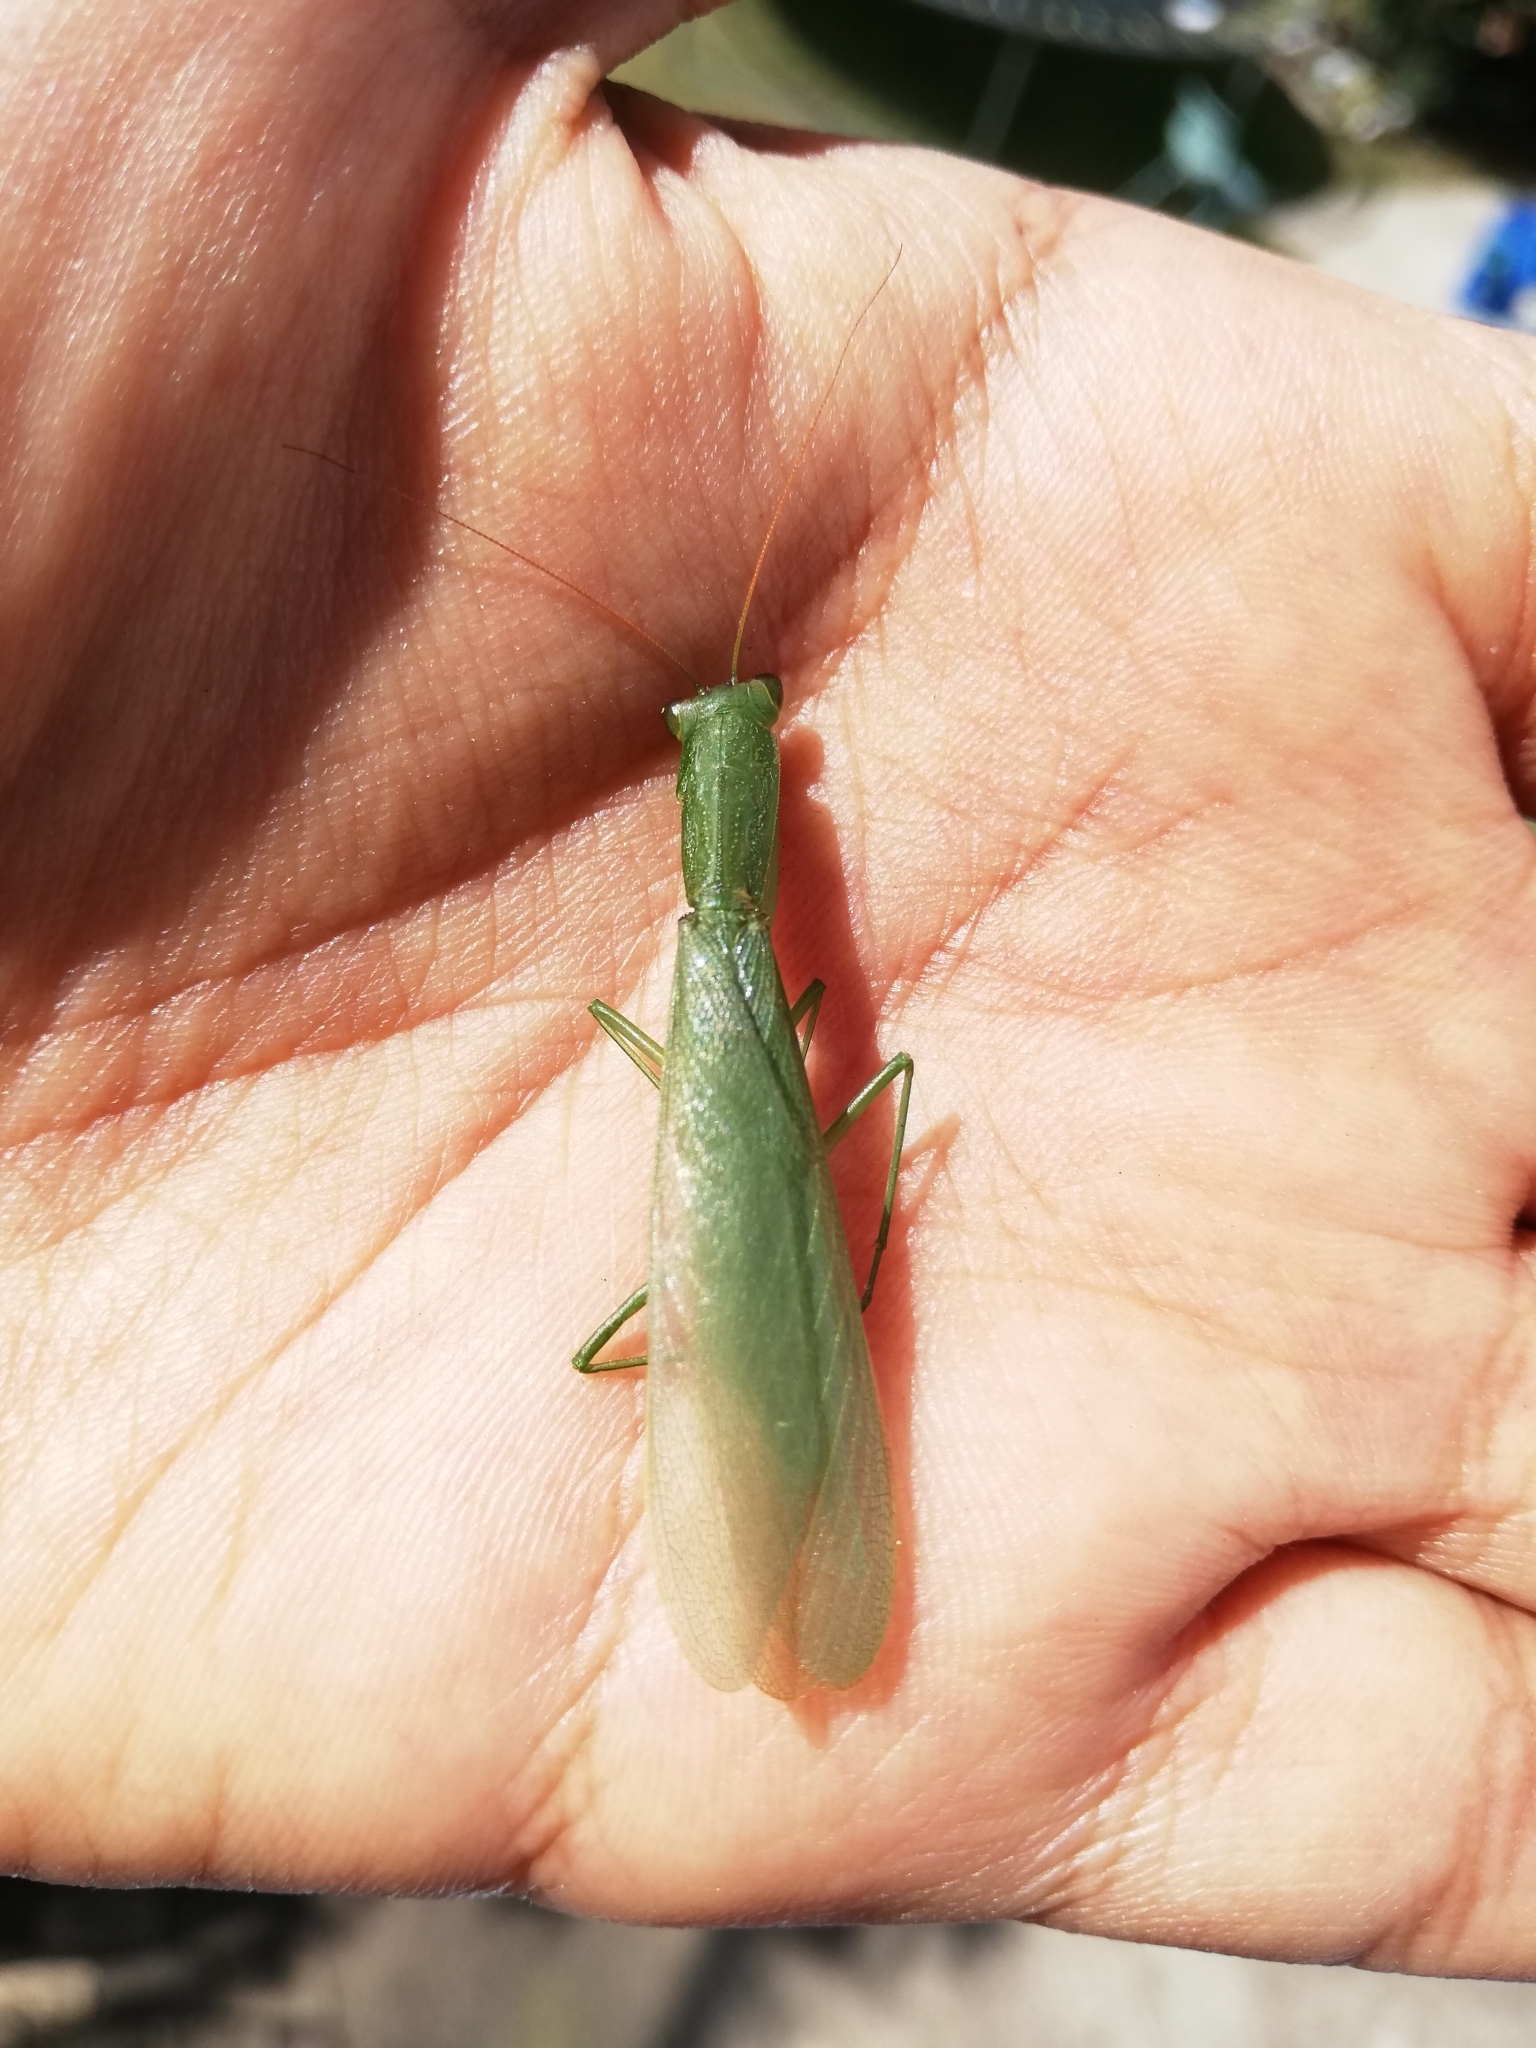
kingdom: Animalia
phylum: Arthropoda
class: Insecta
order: Mantodea
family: Mantidae
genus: Orthodera
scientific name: Orthodera ministralis
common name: Mantis
